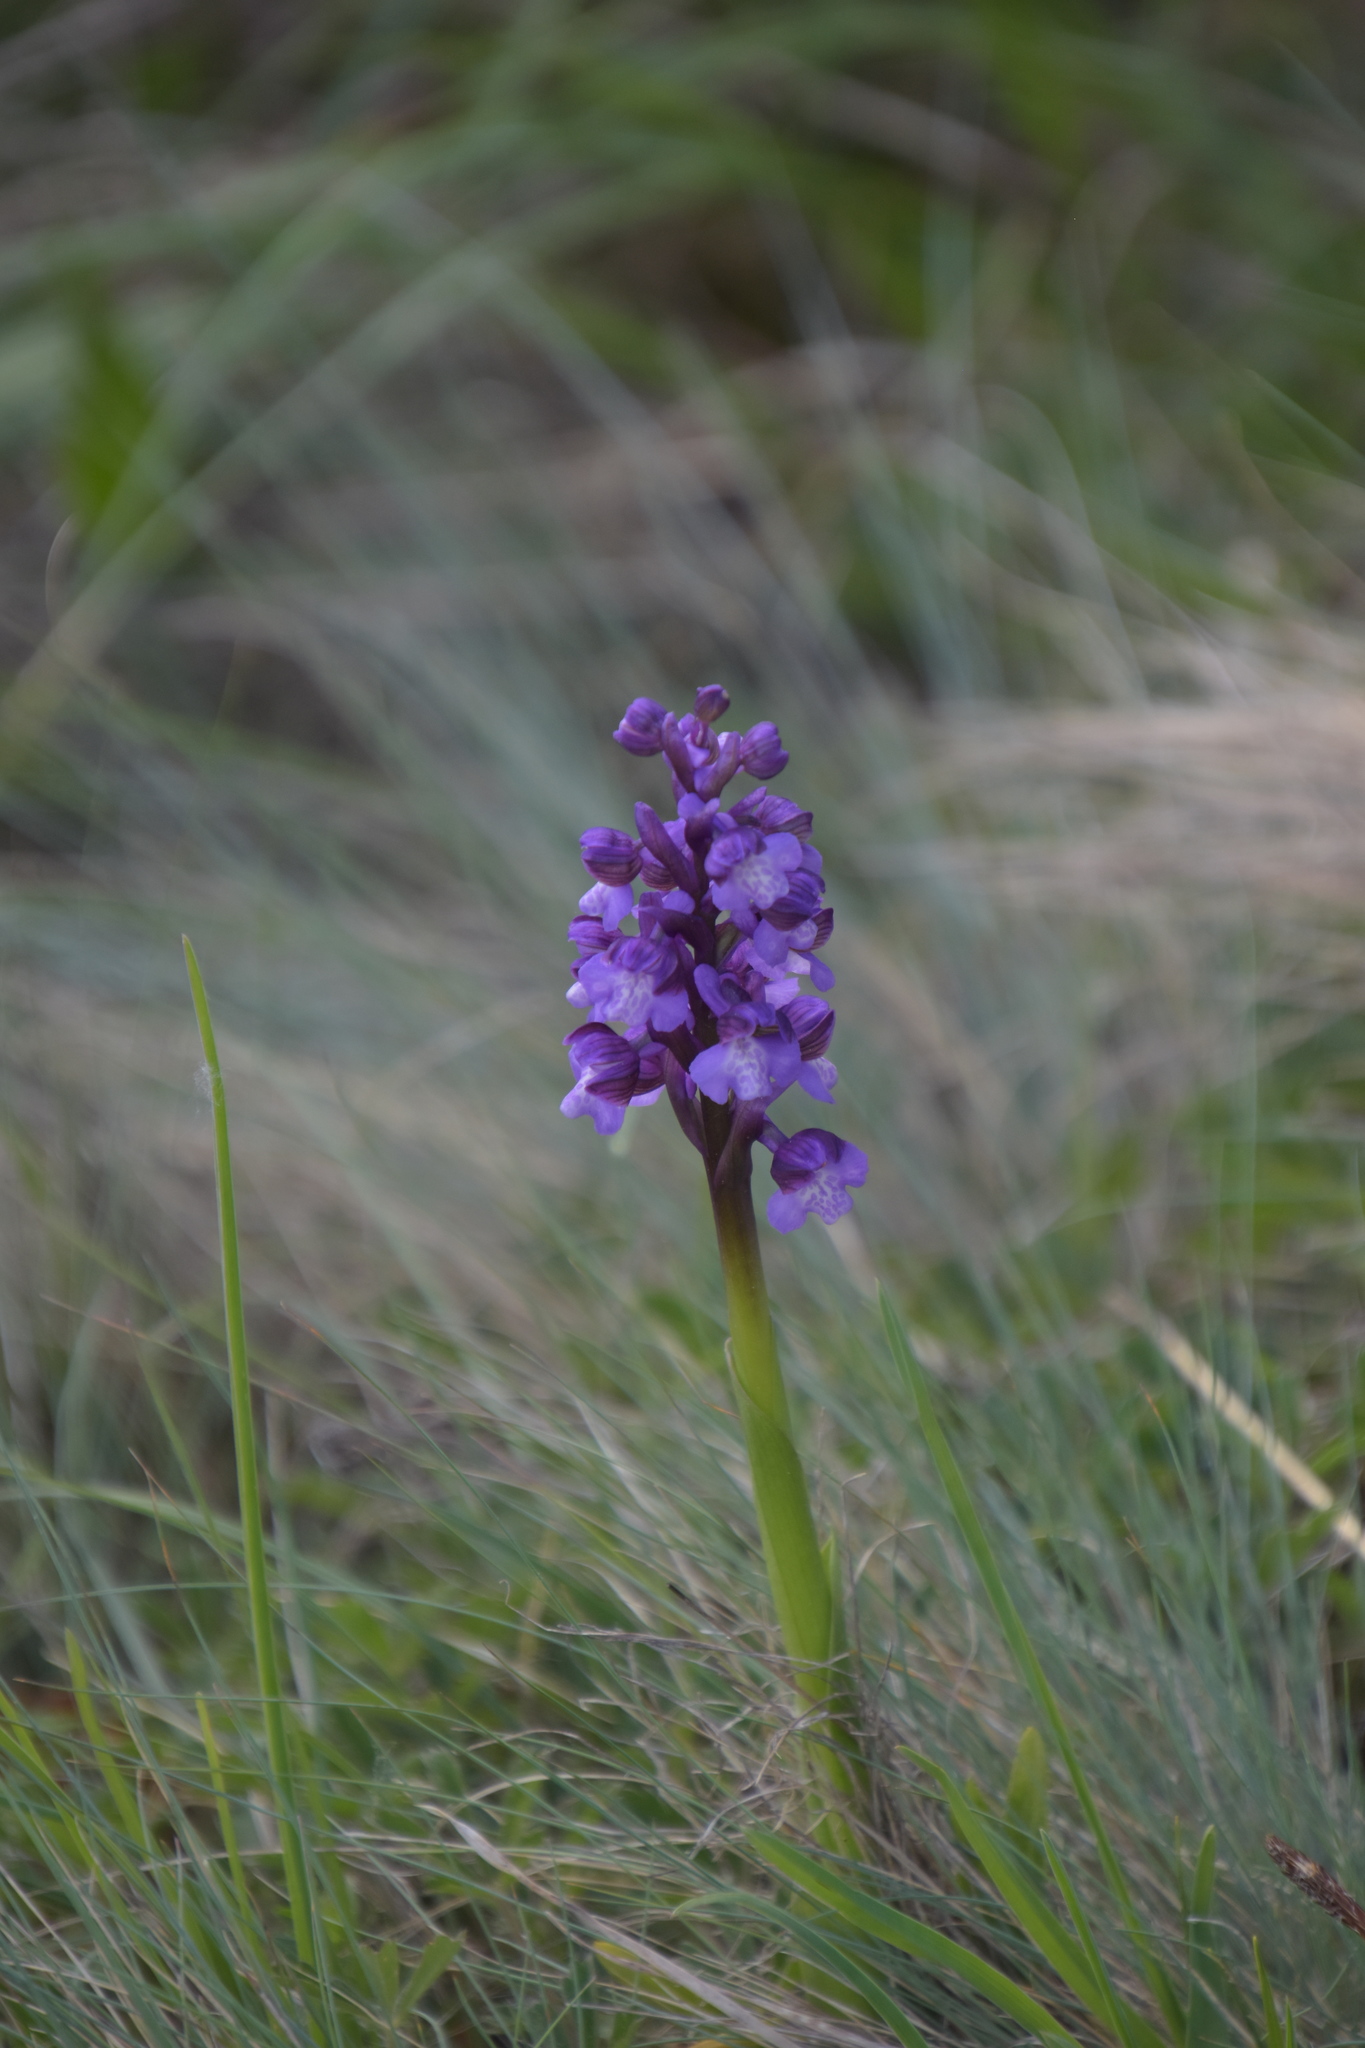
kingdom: Plantae
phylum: Tracheophyta
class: Liliopsida
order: Asparagales
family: Orchidaceae
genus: Anacamptis
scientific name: Anacamptis morio
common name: Green-winged orchid
